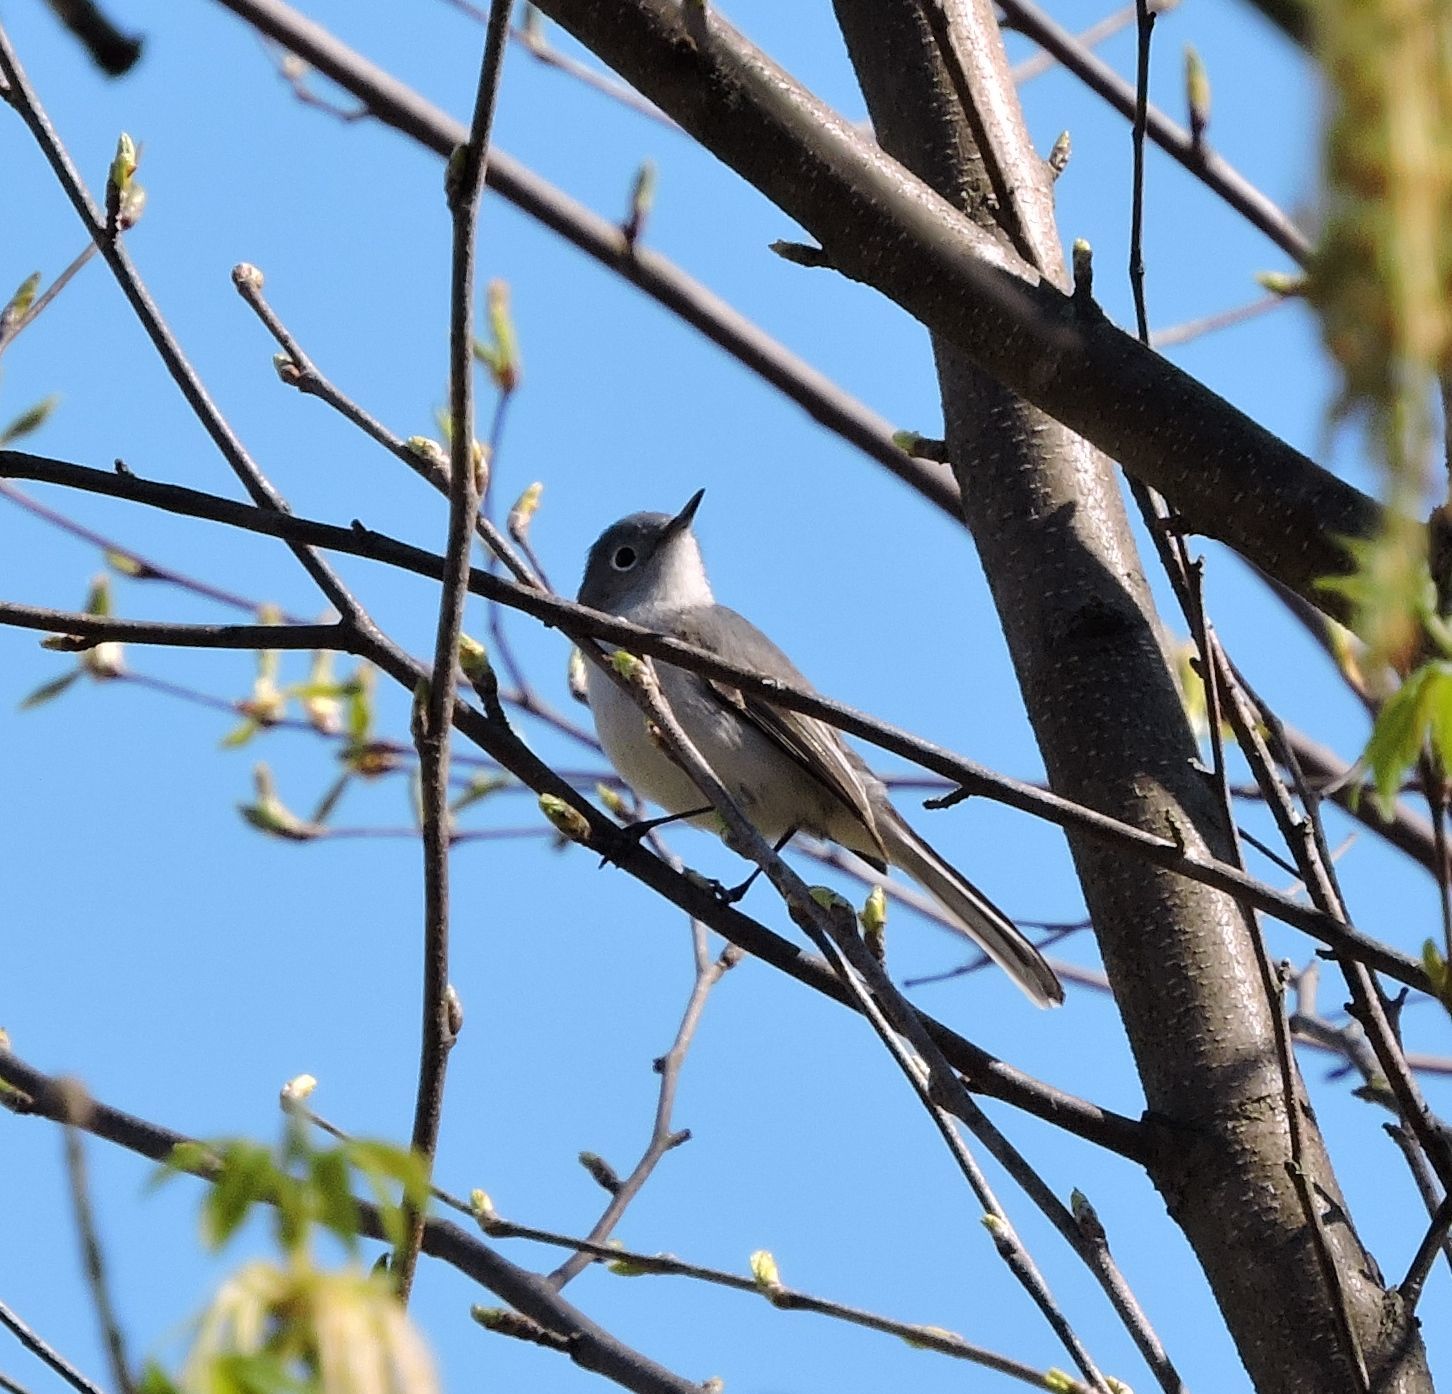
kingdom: Animalia
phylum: Chordata
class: Aves
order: Passeriformes
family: Polioptilidae
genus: Polioptila
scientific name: Polioptila caerulea
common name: Blue-gray gnatcatcher
